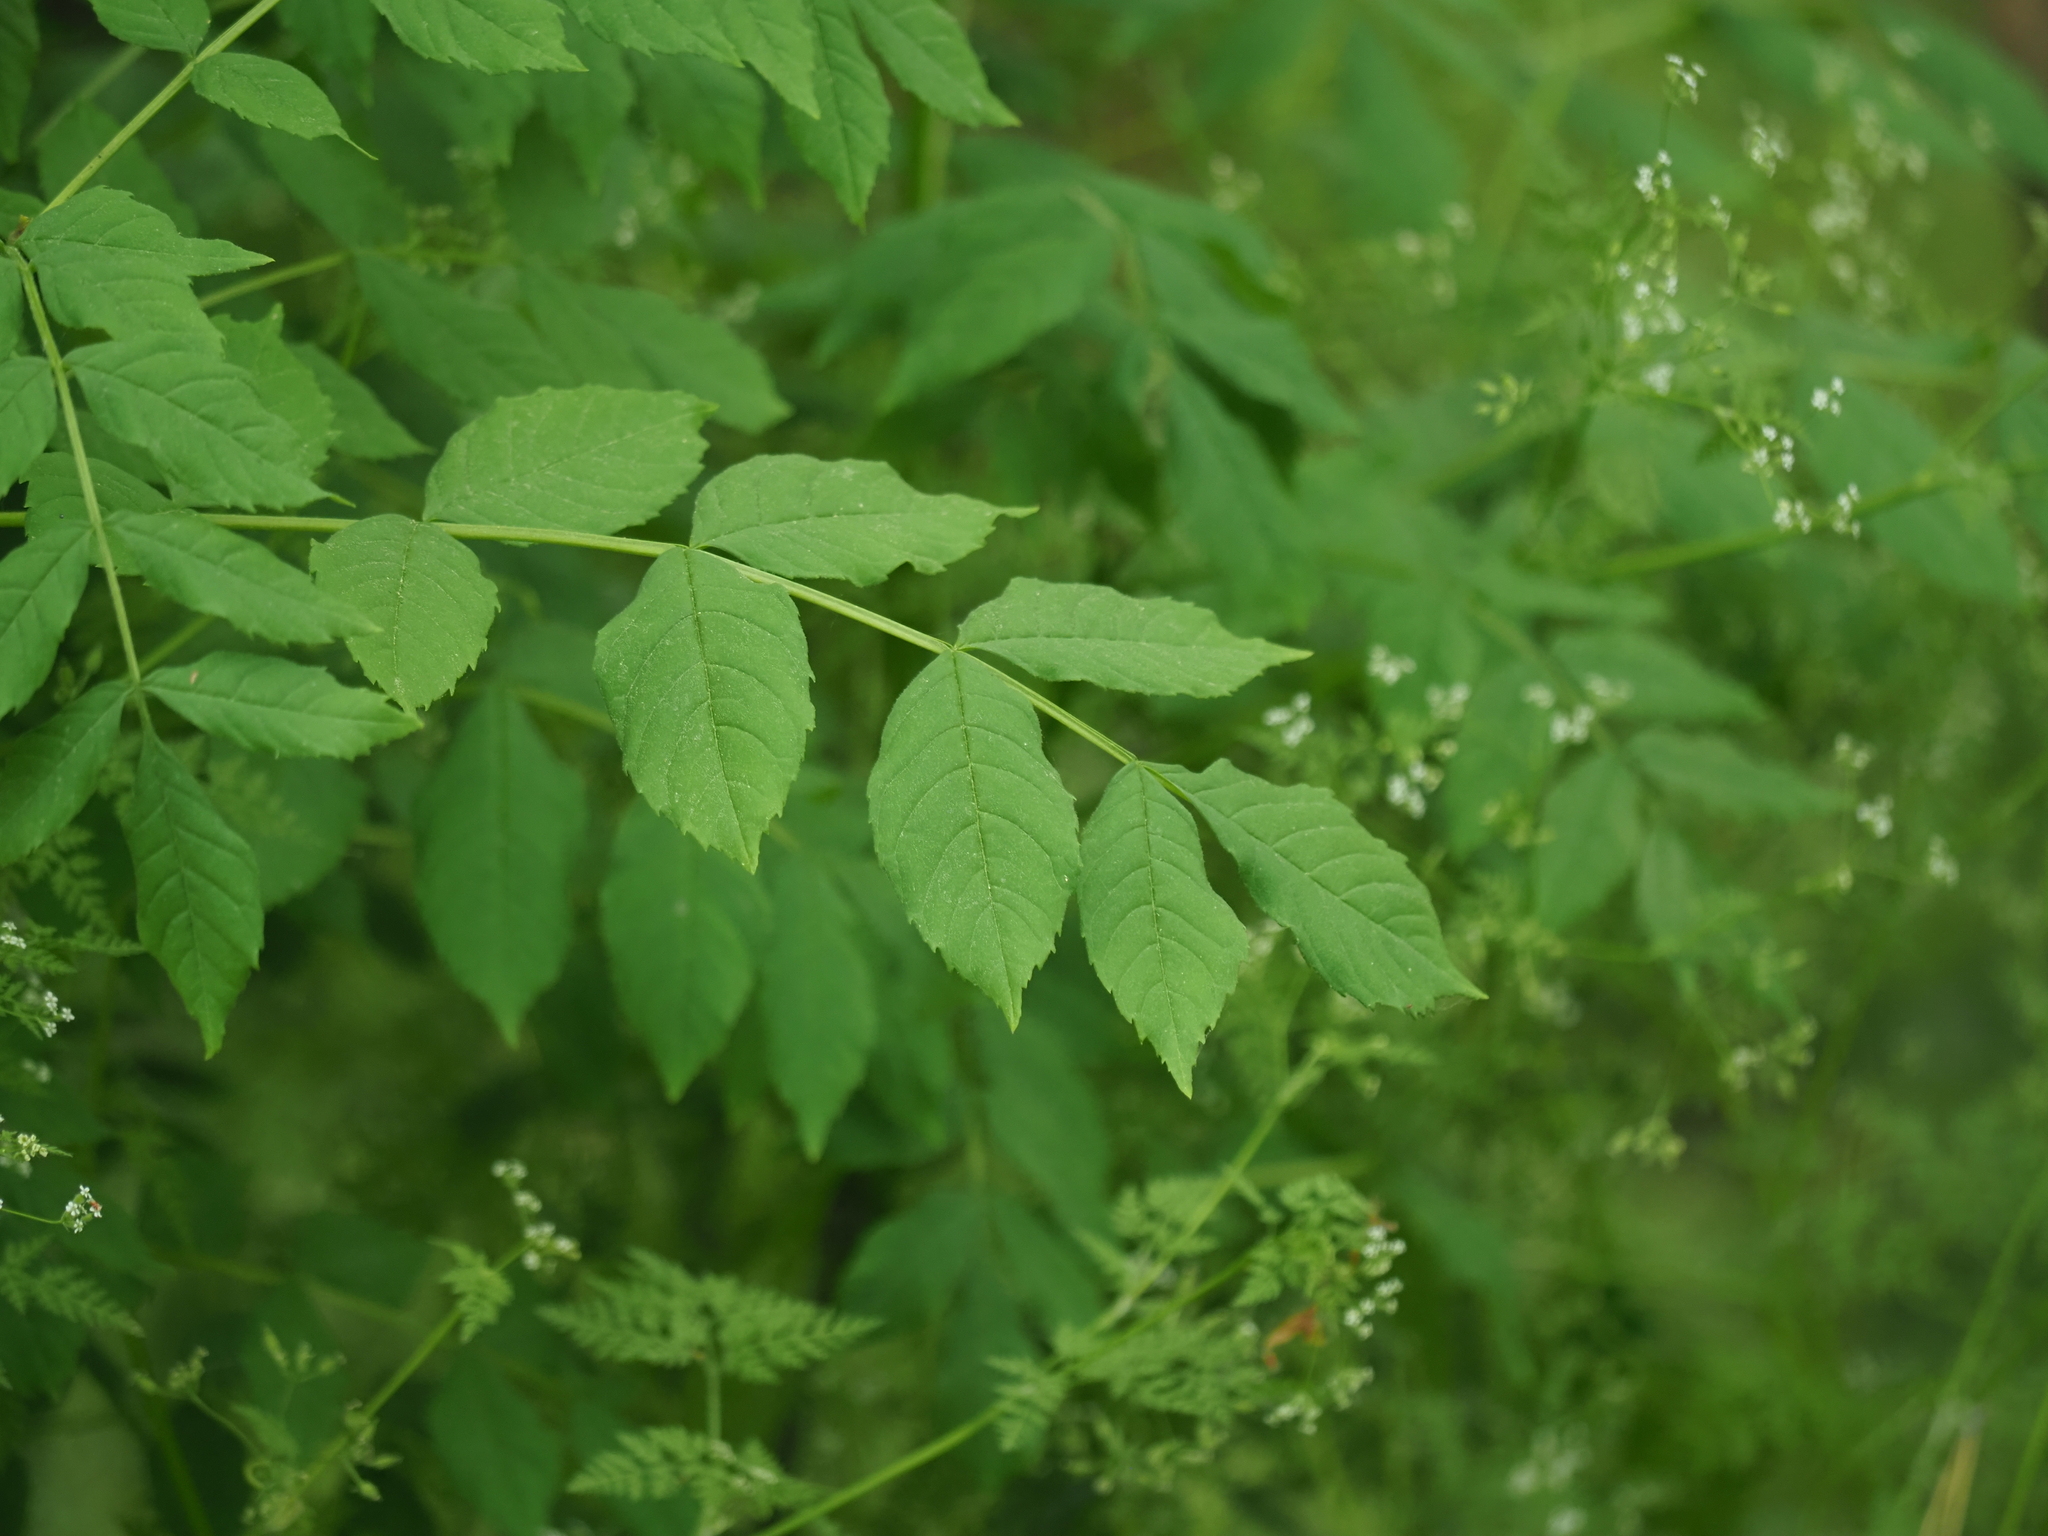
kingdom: Plantae
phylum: Tracheophyta
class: Magnoliopsida
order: Lamiales
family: Oleaceae
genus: Fraxinus
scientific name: Fraxinus excelsior
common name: European ash
